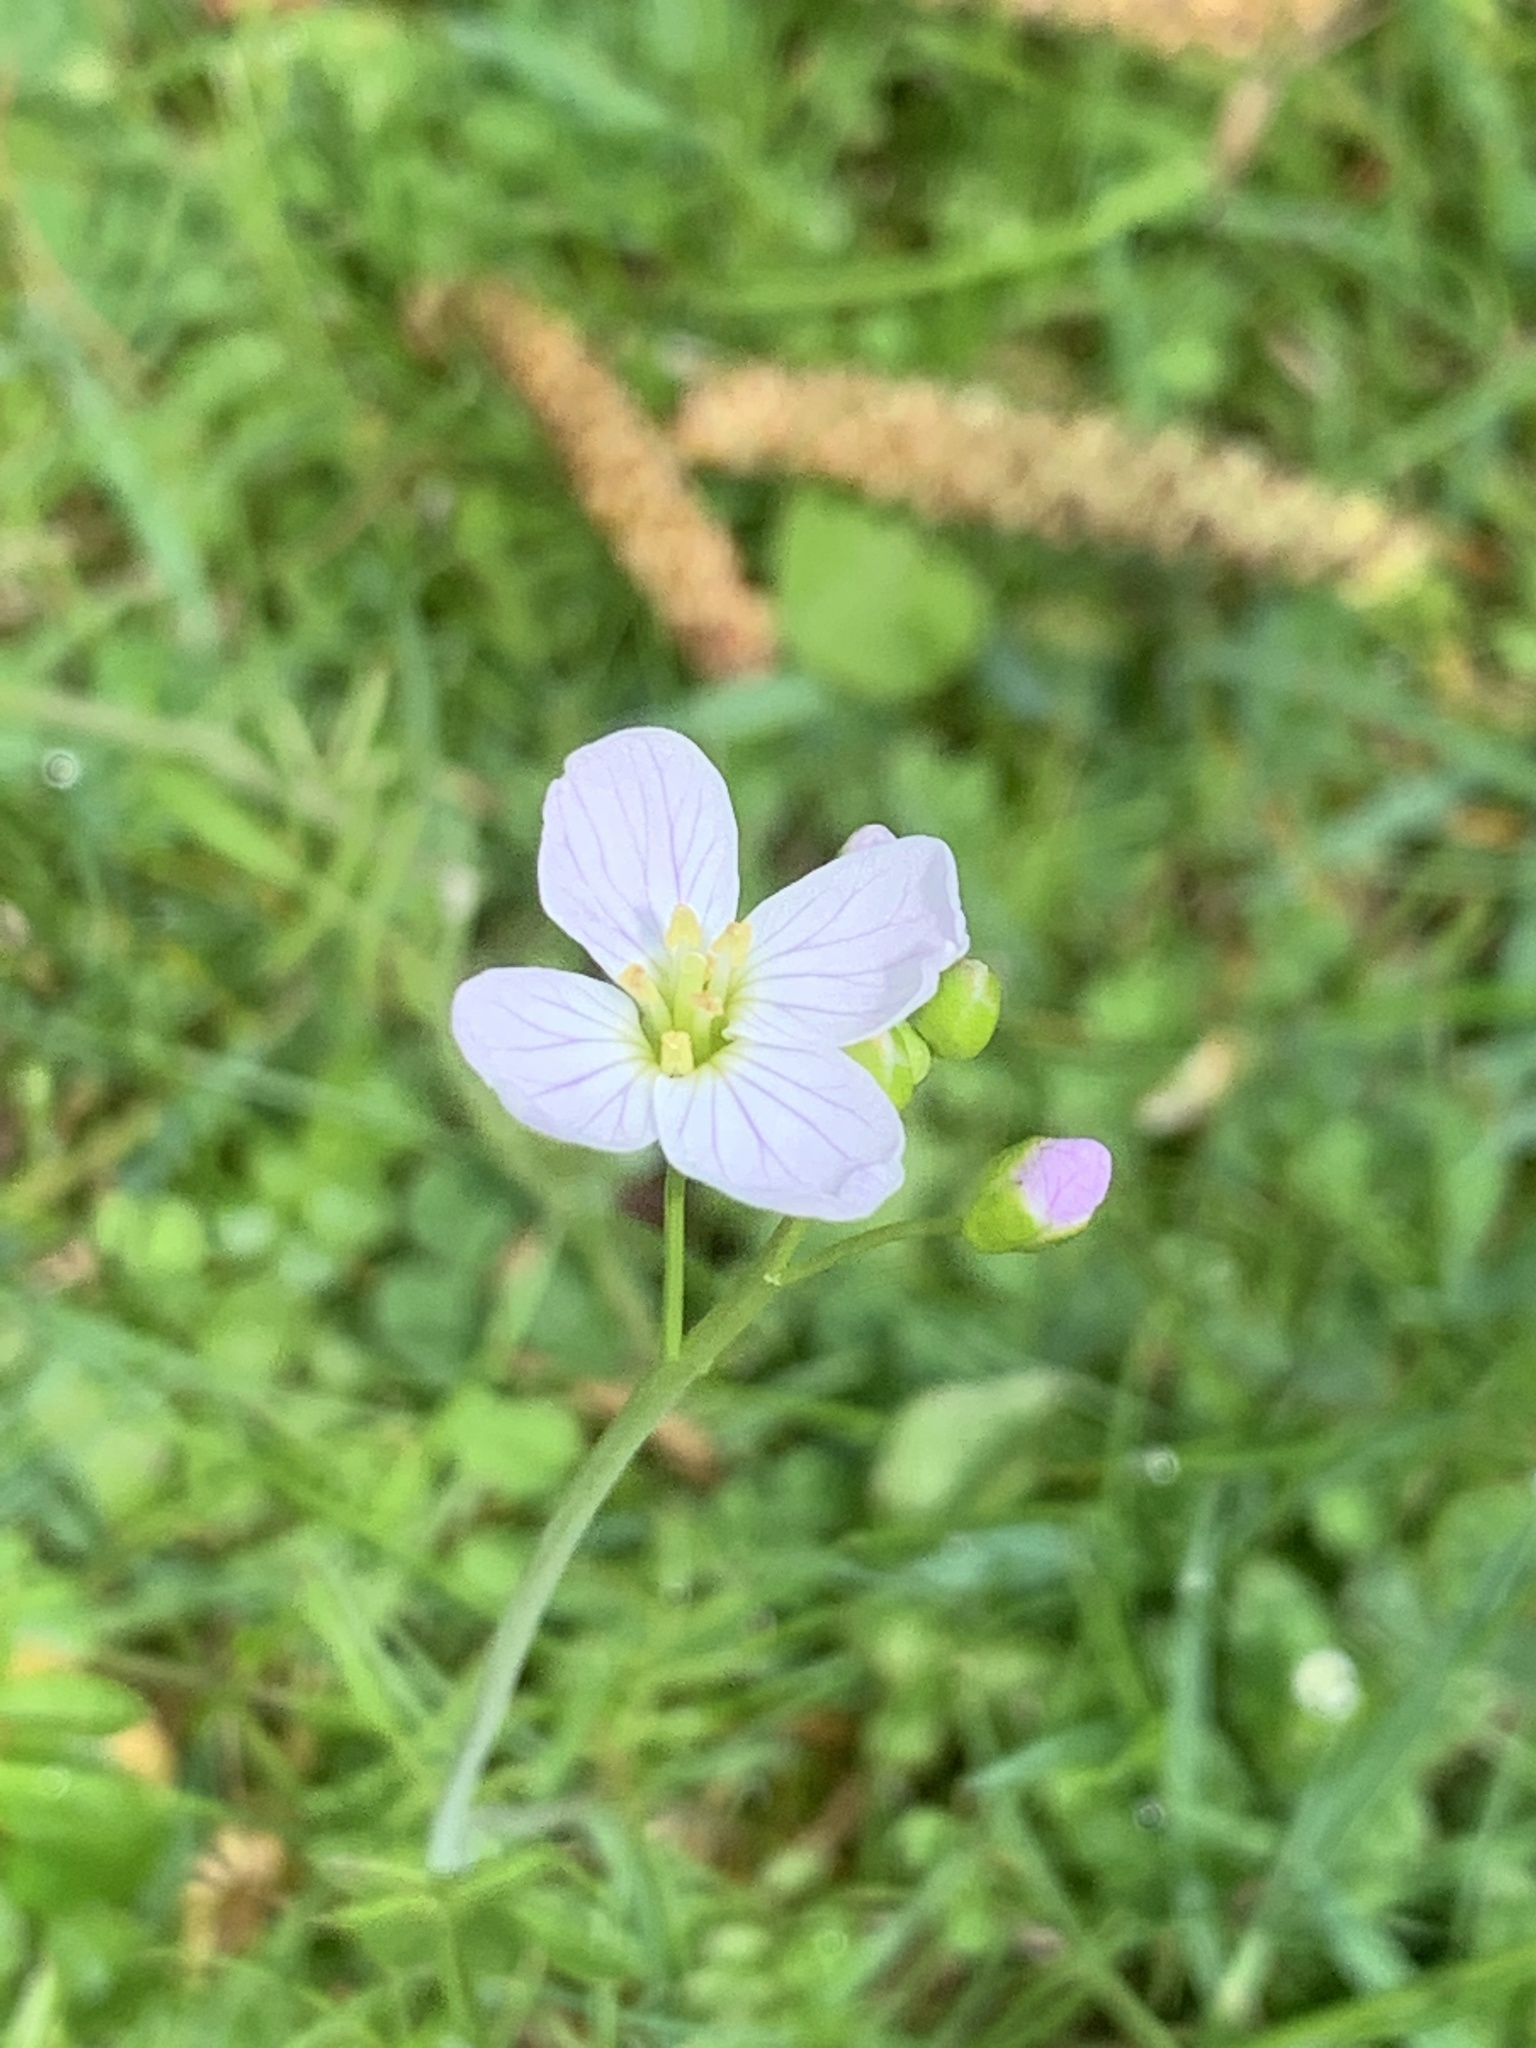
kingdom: Plantae
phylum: Tracheophyta
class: Magnoliopsida
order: Brassicales
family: Brassicaceae
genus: Cardamine
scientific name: Cardamine pratensis
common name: Cuckoo flower
